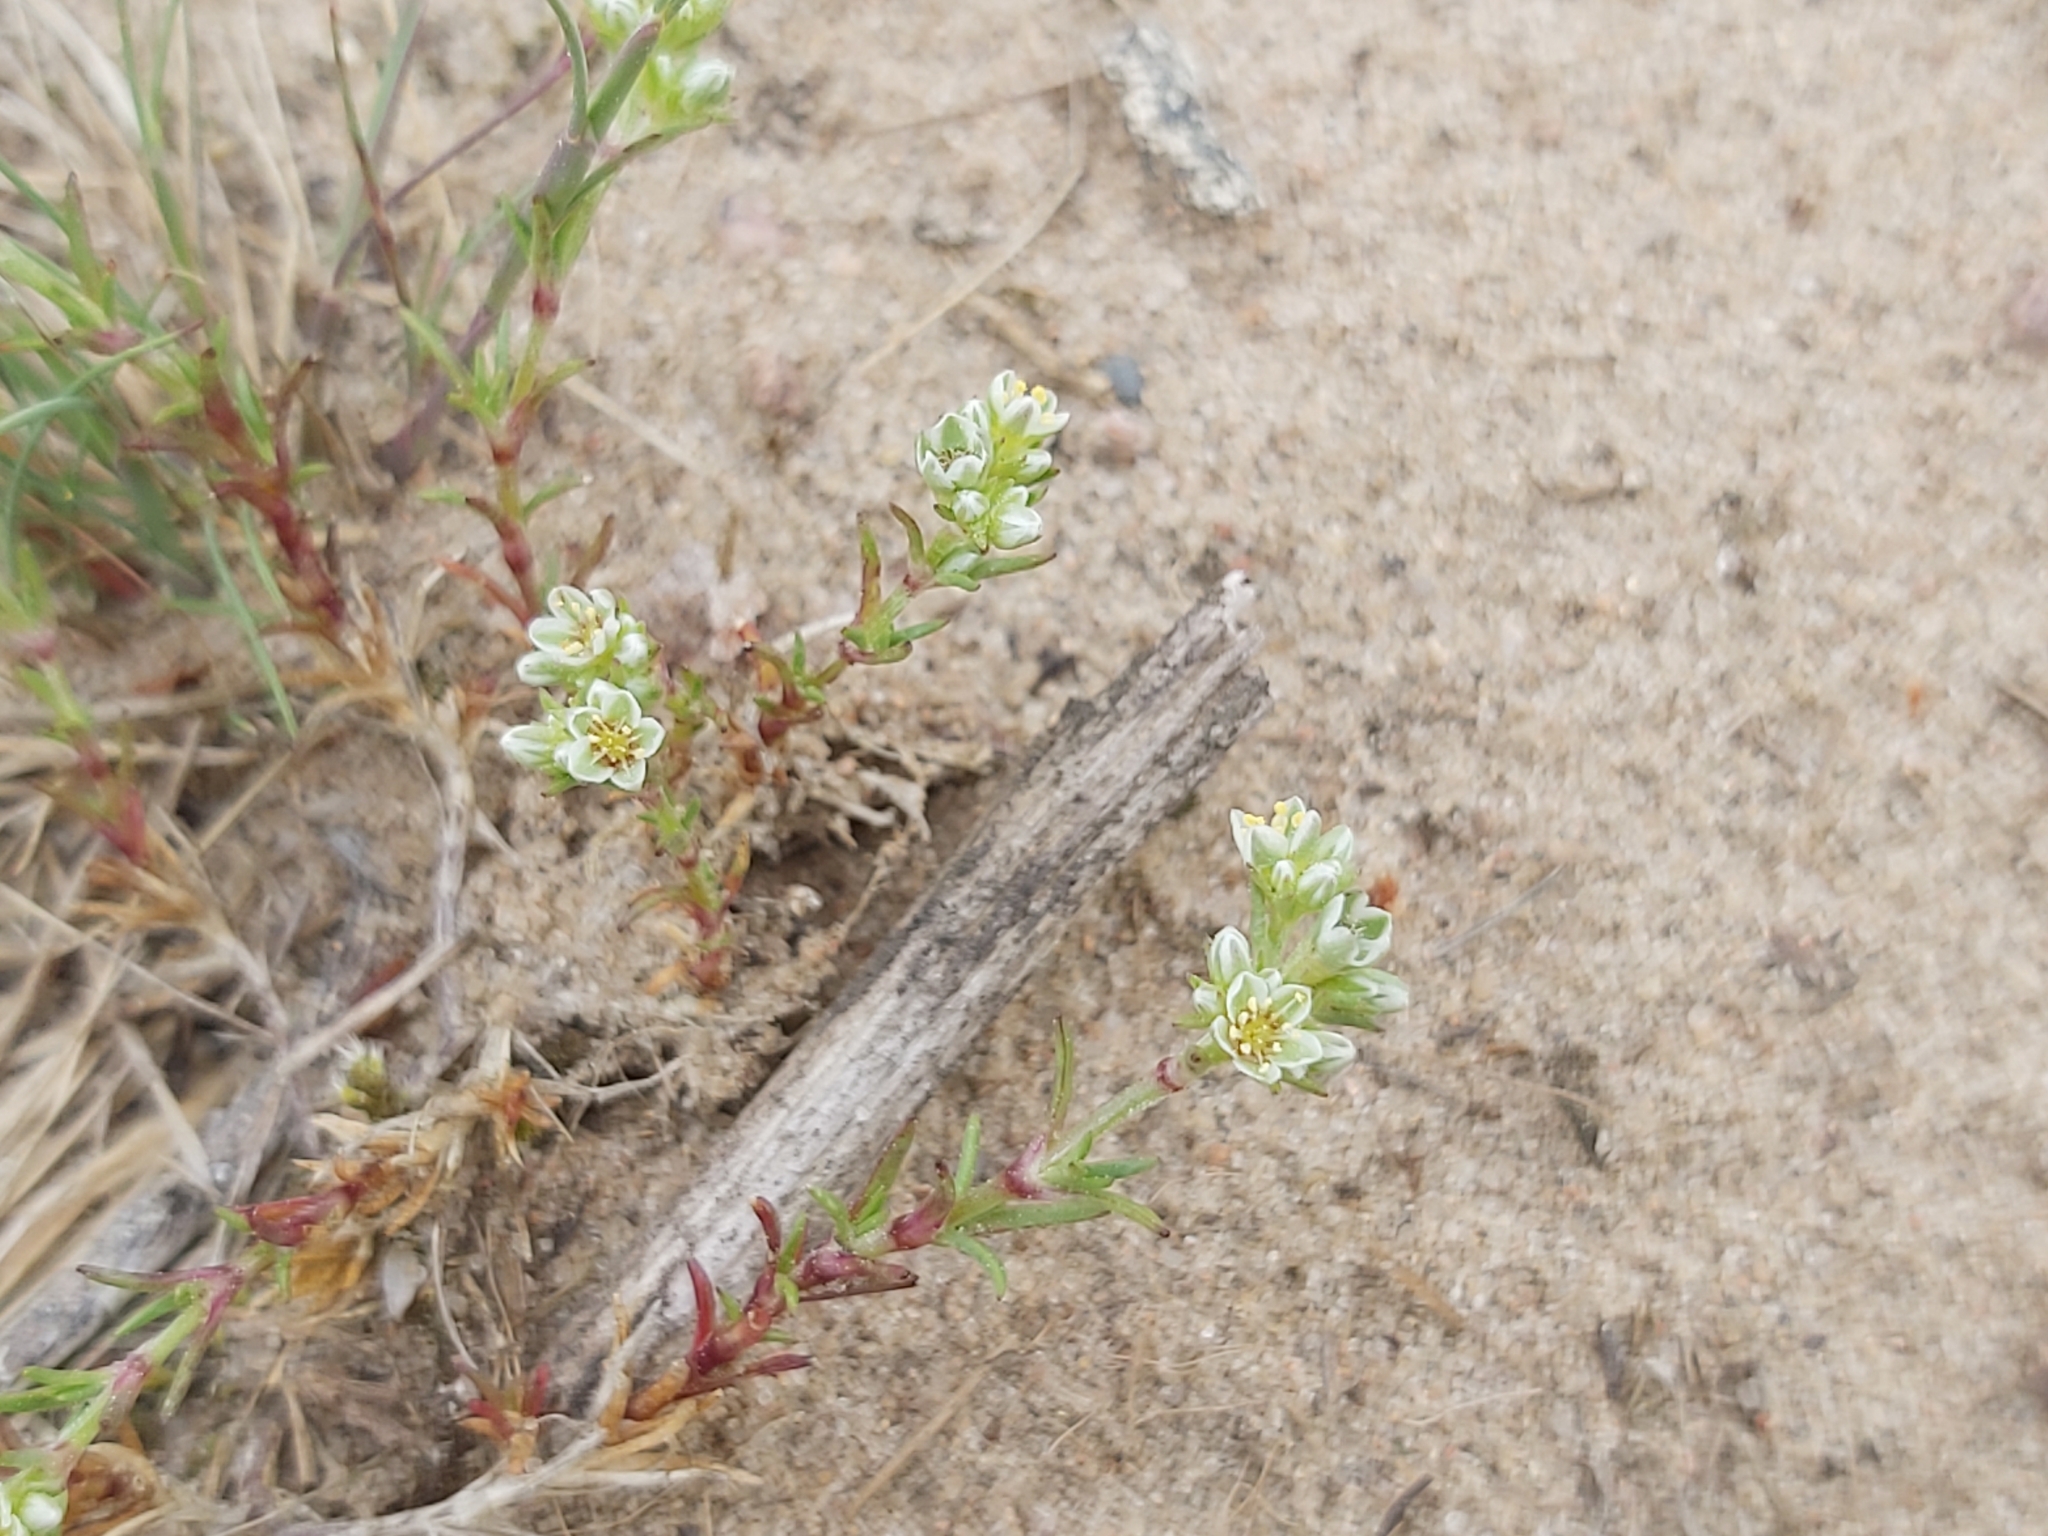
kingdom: Plantae
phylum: Tracheophyta
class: Magnoliopsida
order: Caryophyllales
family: Caryophyllaceae
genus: Scleranthus
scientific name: Scleranthus perennis
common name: Perennial knawel
